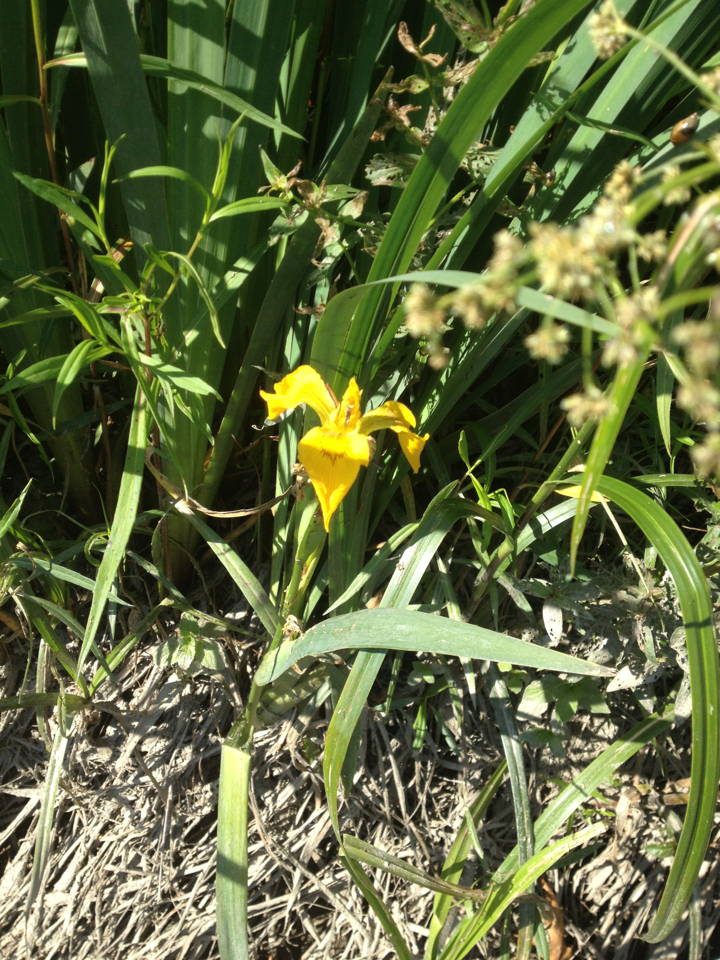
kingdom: Plantae
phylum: Tracheophyta
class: Liliopsida
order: Asparagales
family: Iridaceae
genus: Iris
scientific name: Iris pseudacorus
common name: Yellow flag
